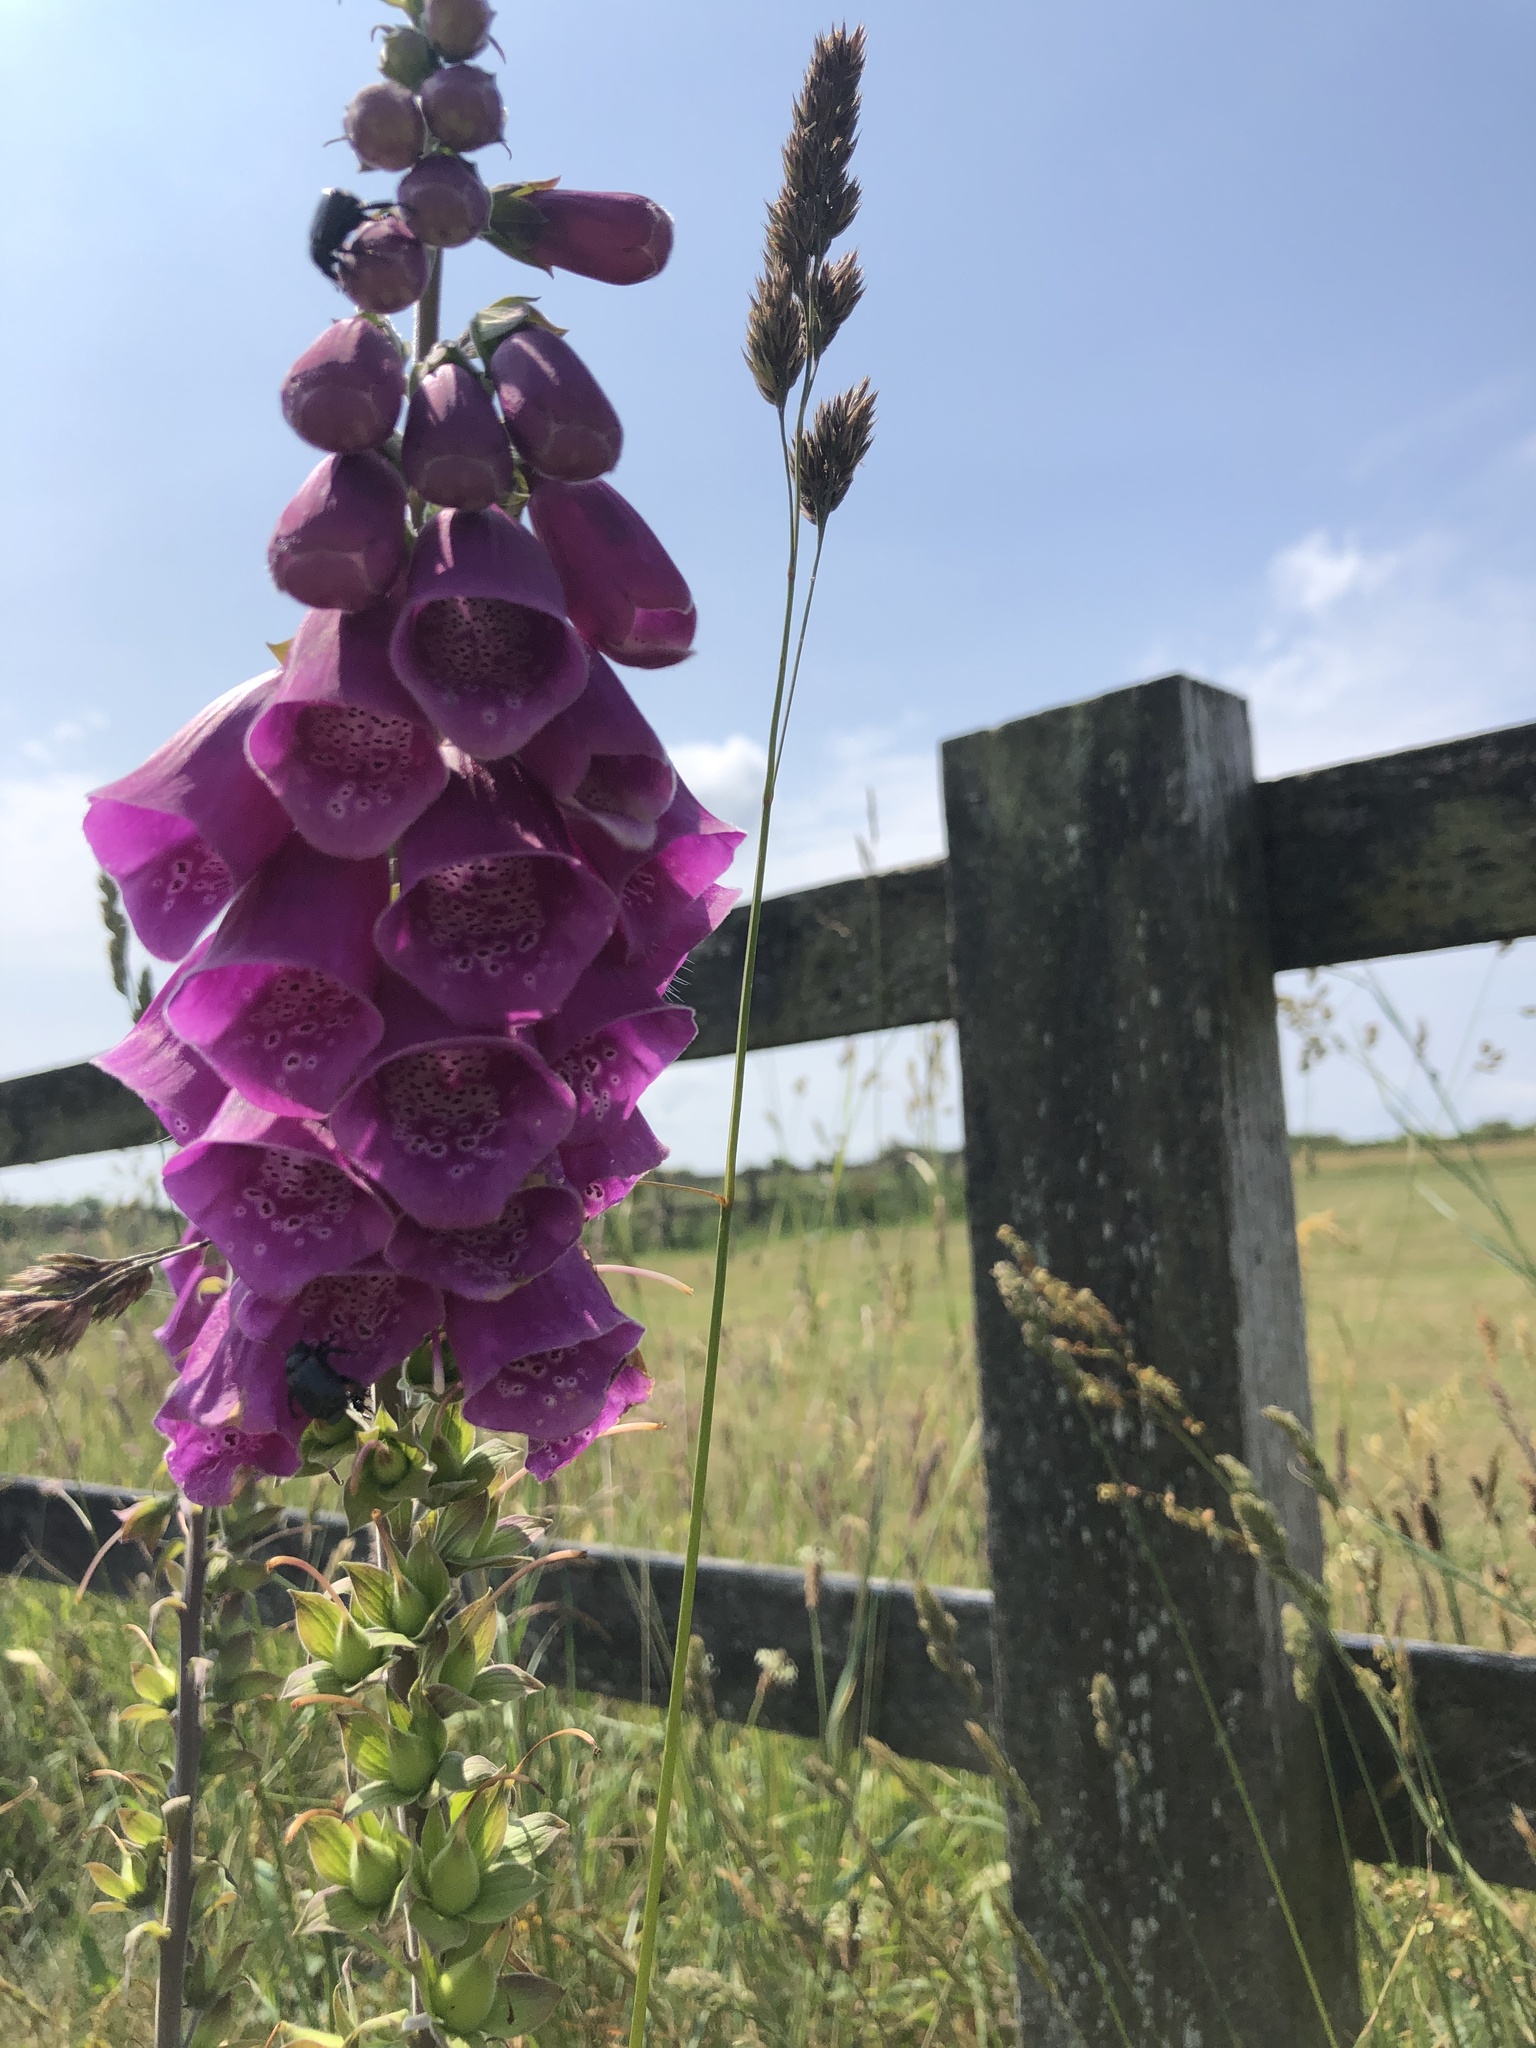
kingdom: Plantae
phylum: Tracheophyta
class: Magnoliopsida
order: Lamiales
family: Plantaginaceae
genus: Digitalis
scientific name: Digitalis purpurea
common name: Foxglove
